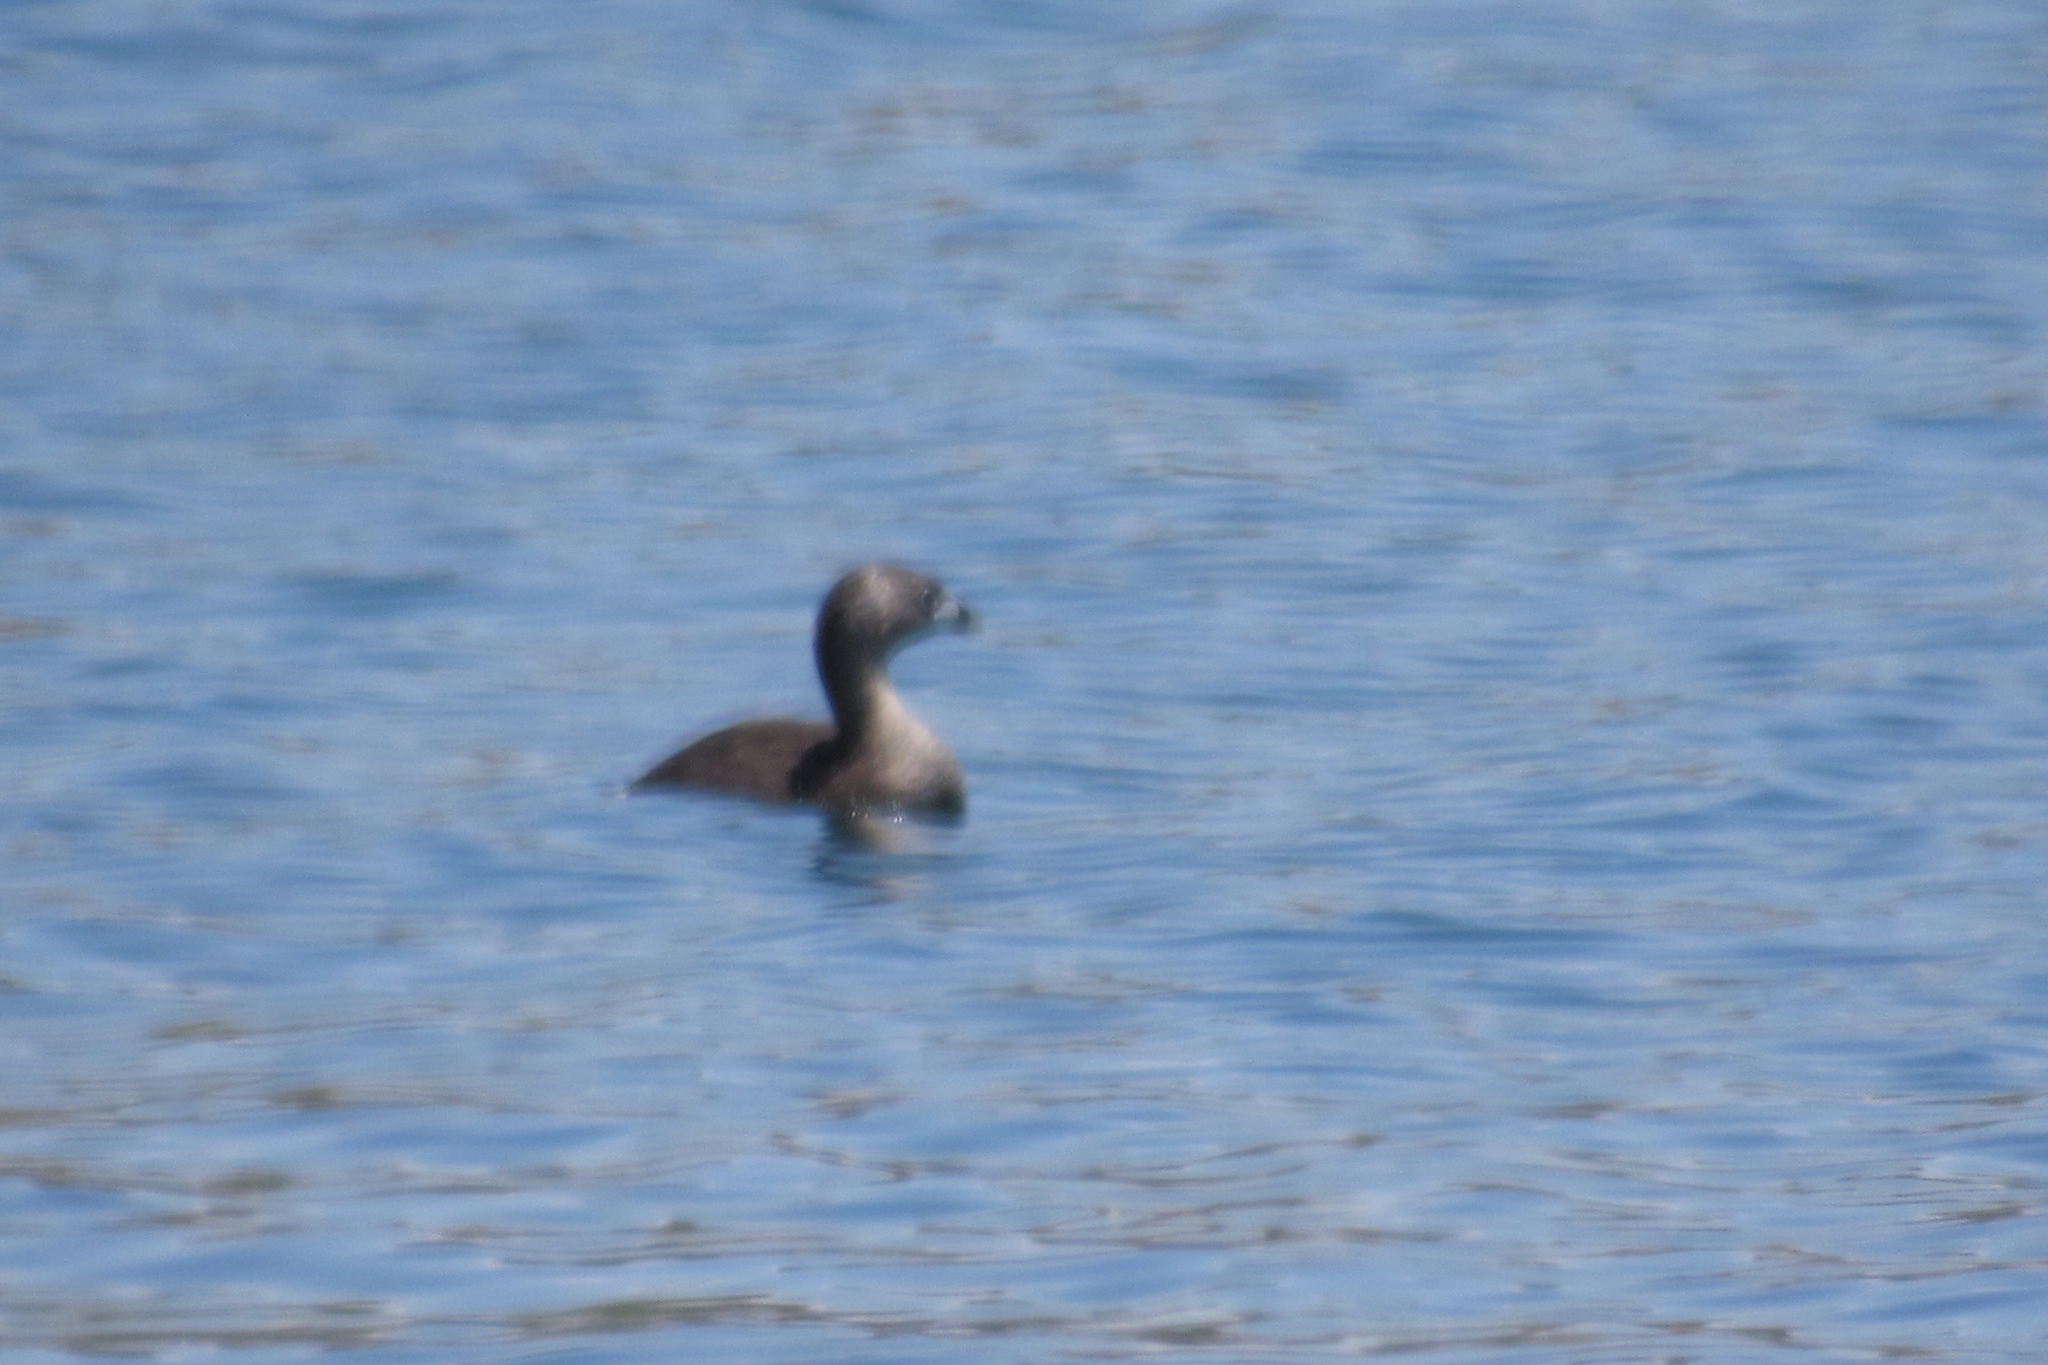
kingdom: Animalia
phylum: Chordata
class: Aves
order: Podicipediformes
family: Podicipedidae
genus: Podilymbus
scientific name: Podilymbus podiceps
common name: Pied-billed grebe
